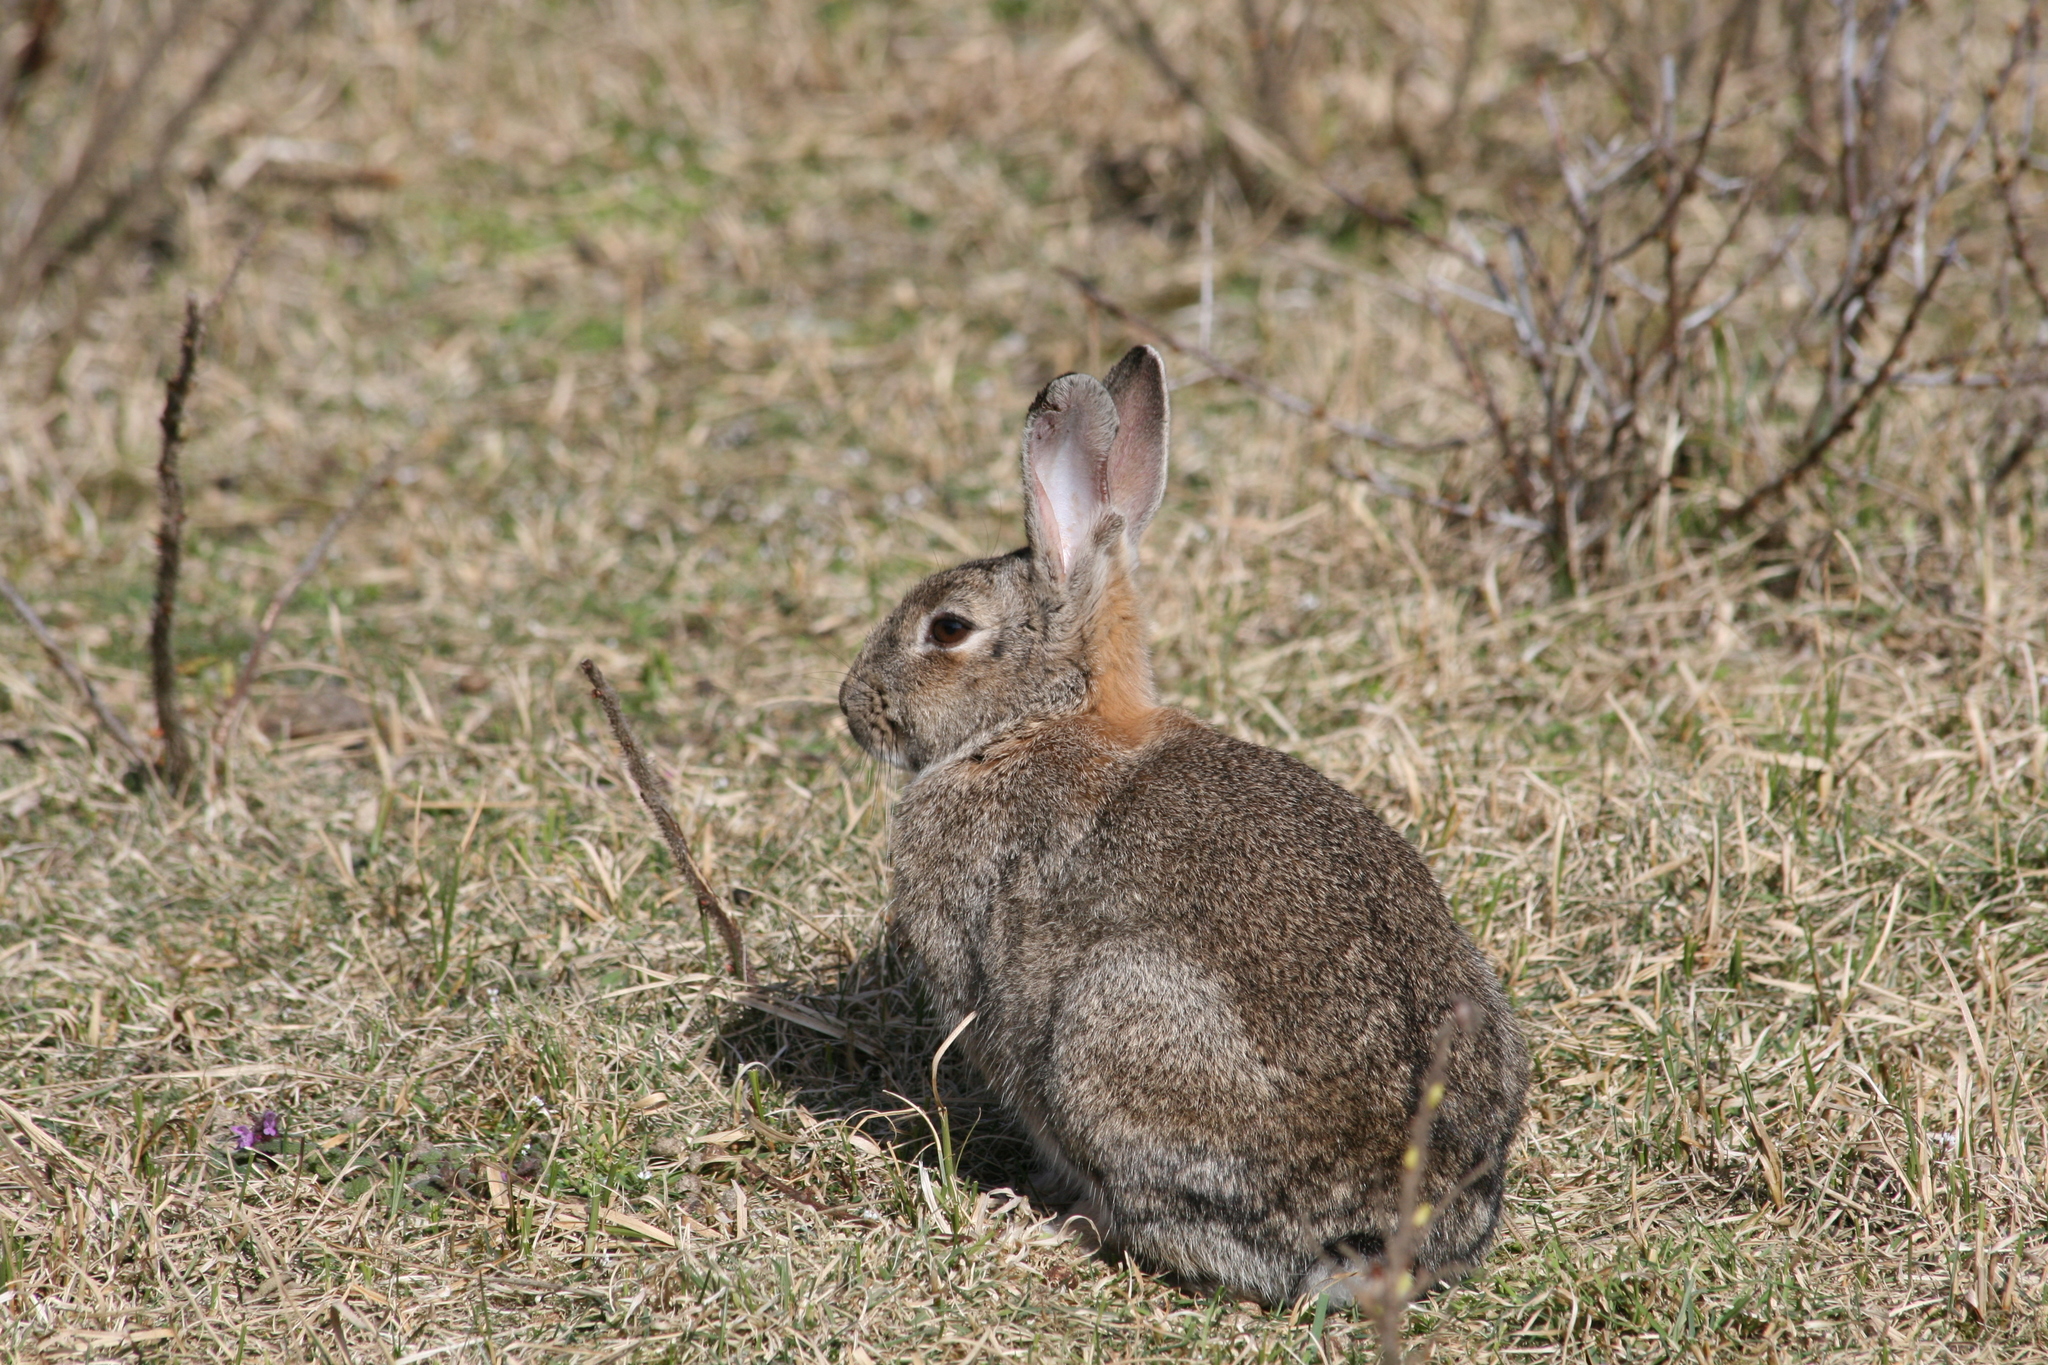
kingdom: Animalia
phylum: Chordata
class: Mammalia
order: Lagomorpha
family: Leporidae
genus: Oryctolagus
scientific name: Oryctolagus cuniculus
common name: European rabbit
